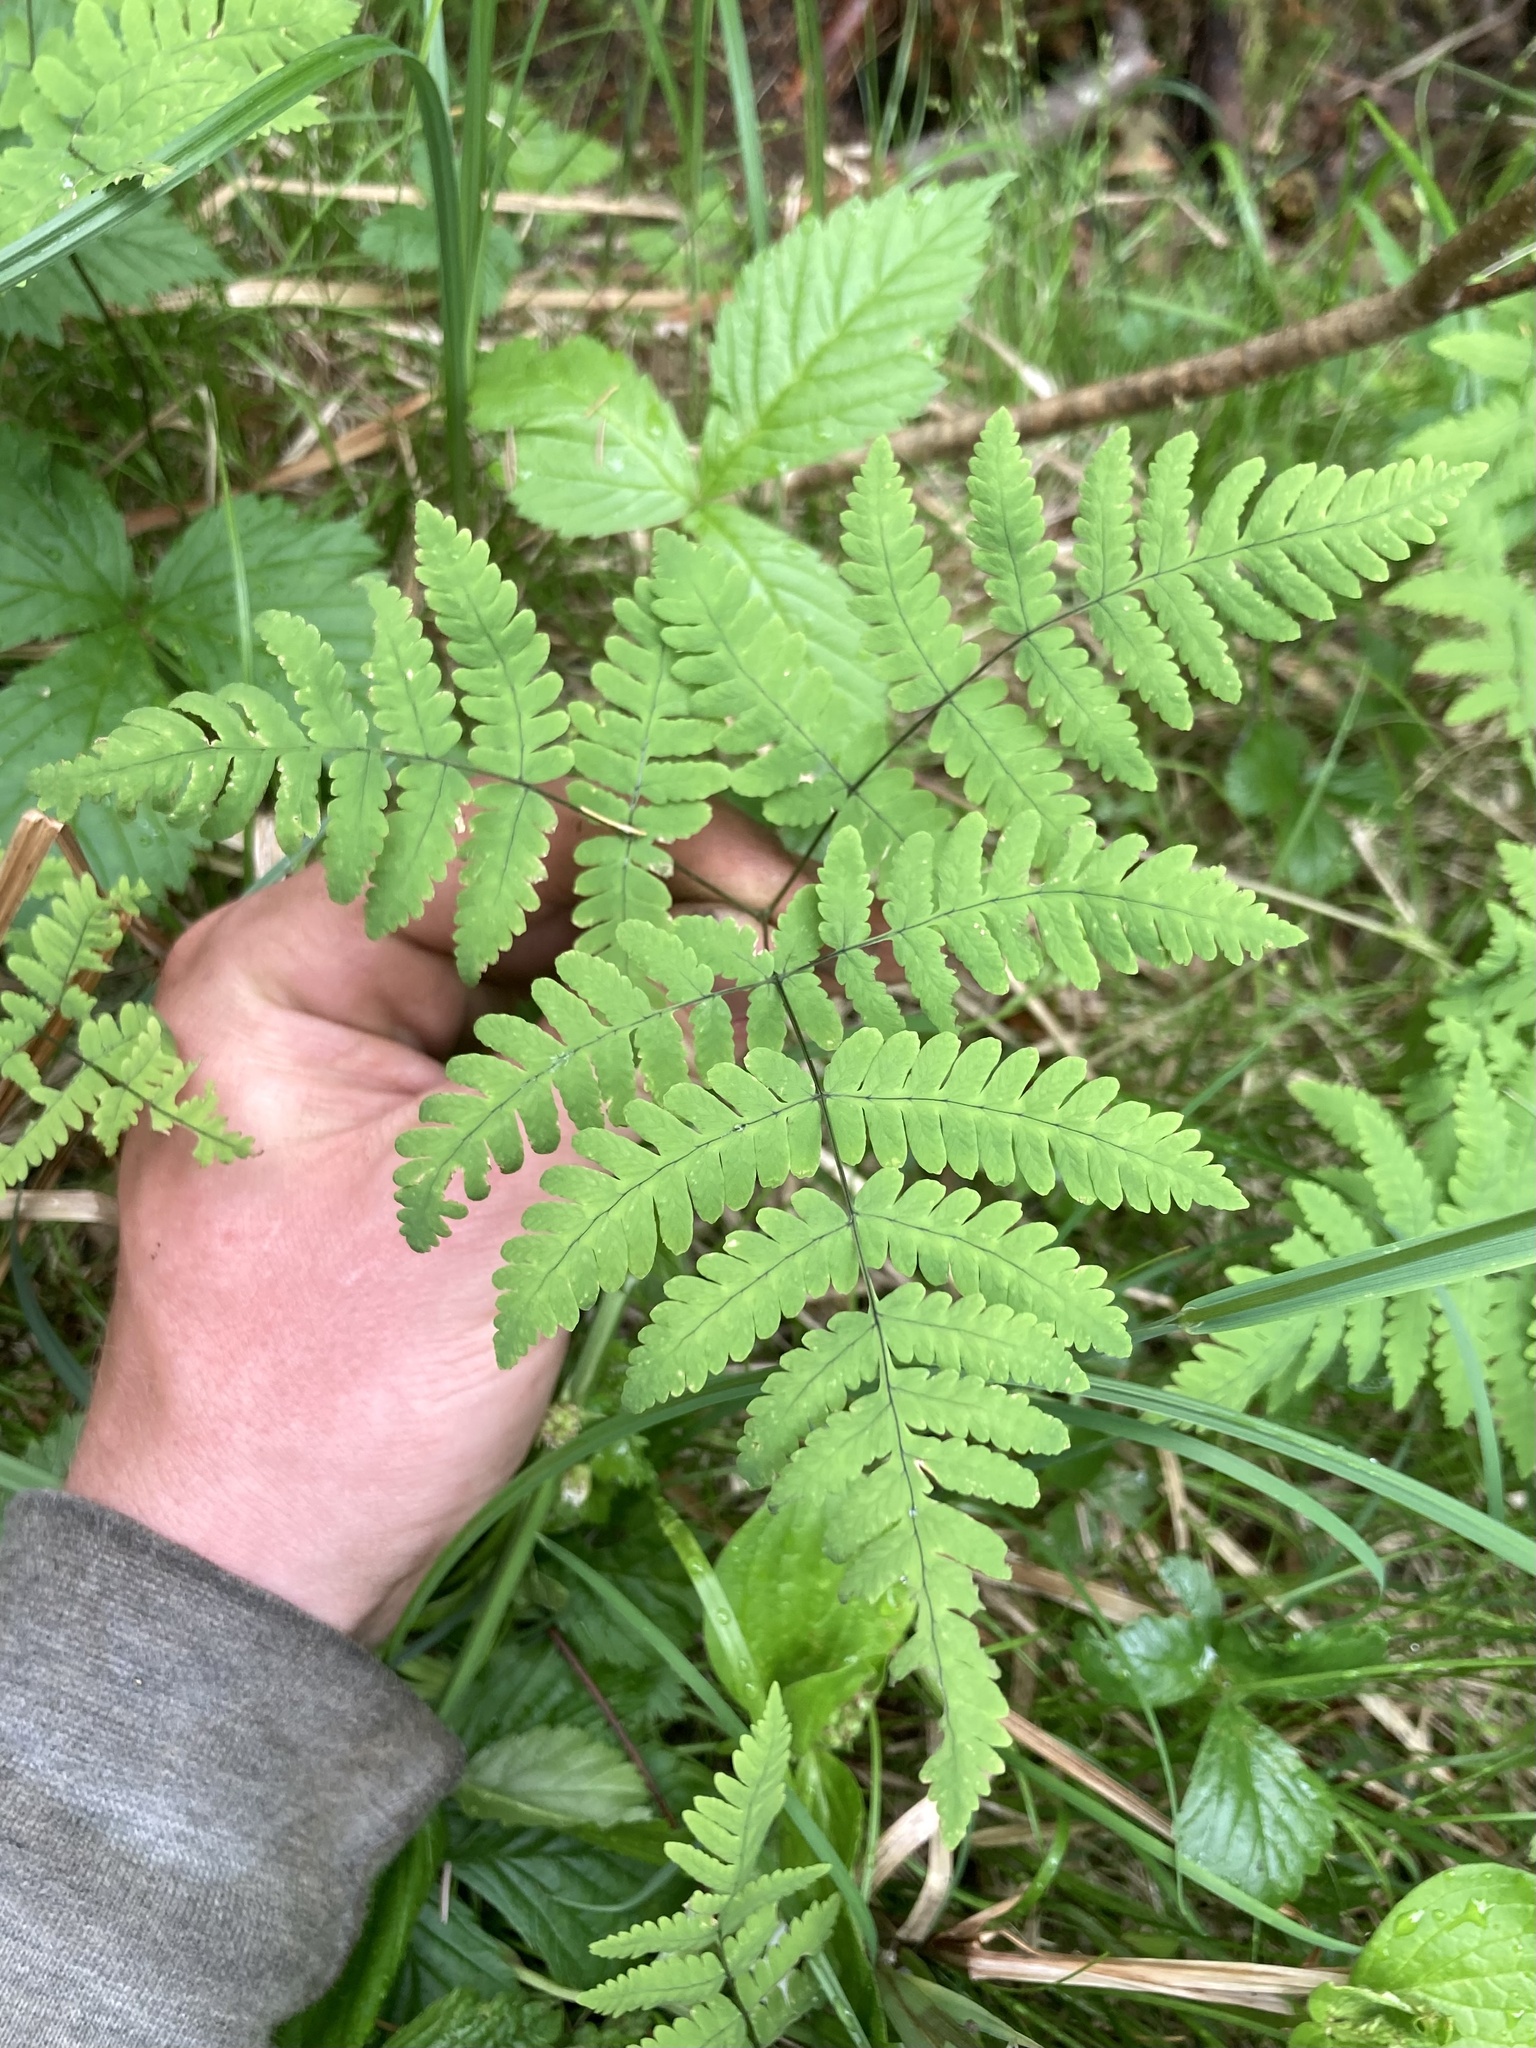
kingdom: Plantae
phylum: Tracheophyta
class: Polypodiopsida
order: Polypodiales
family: Cystopteridaceae
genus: Gymnocarpium
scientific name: Gymnocarpium dryopteris
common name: Oak fern
